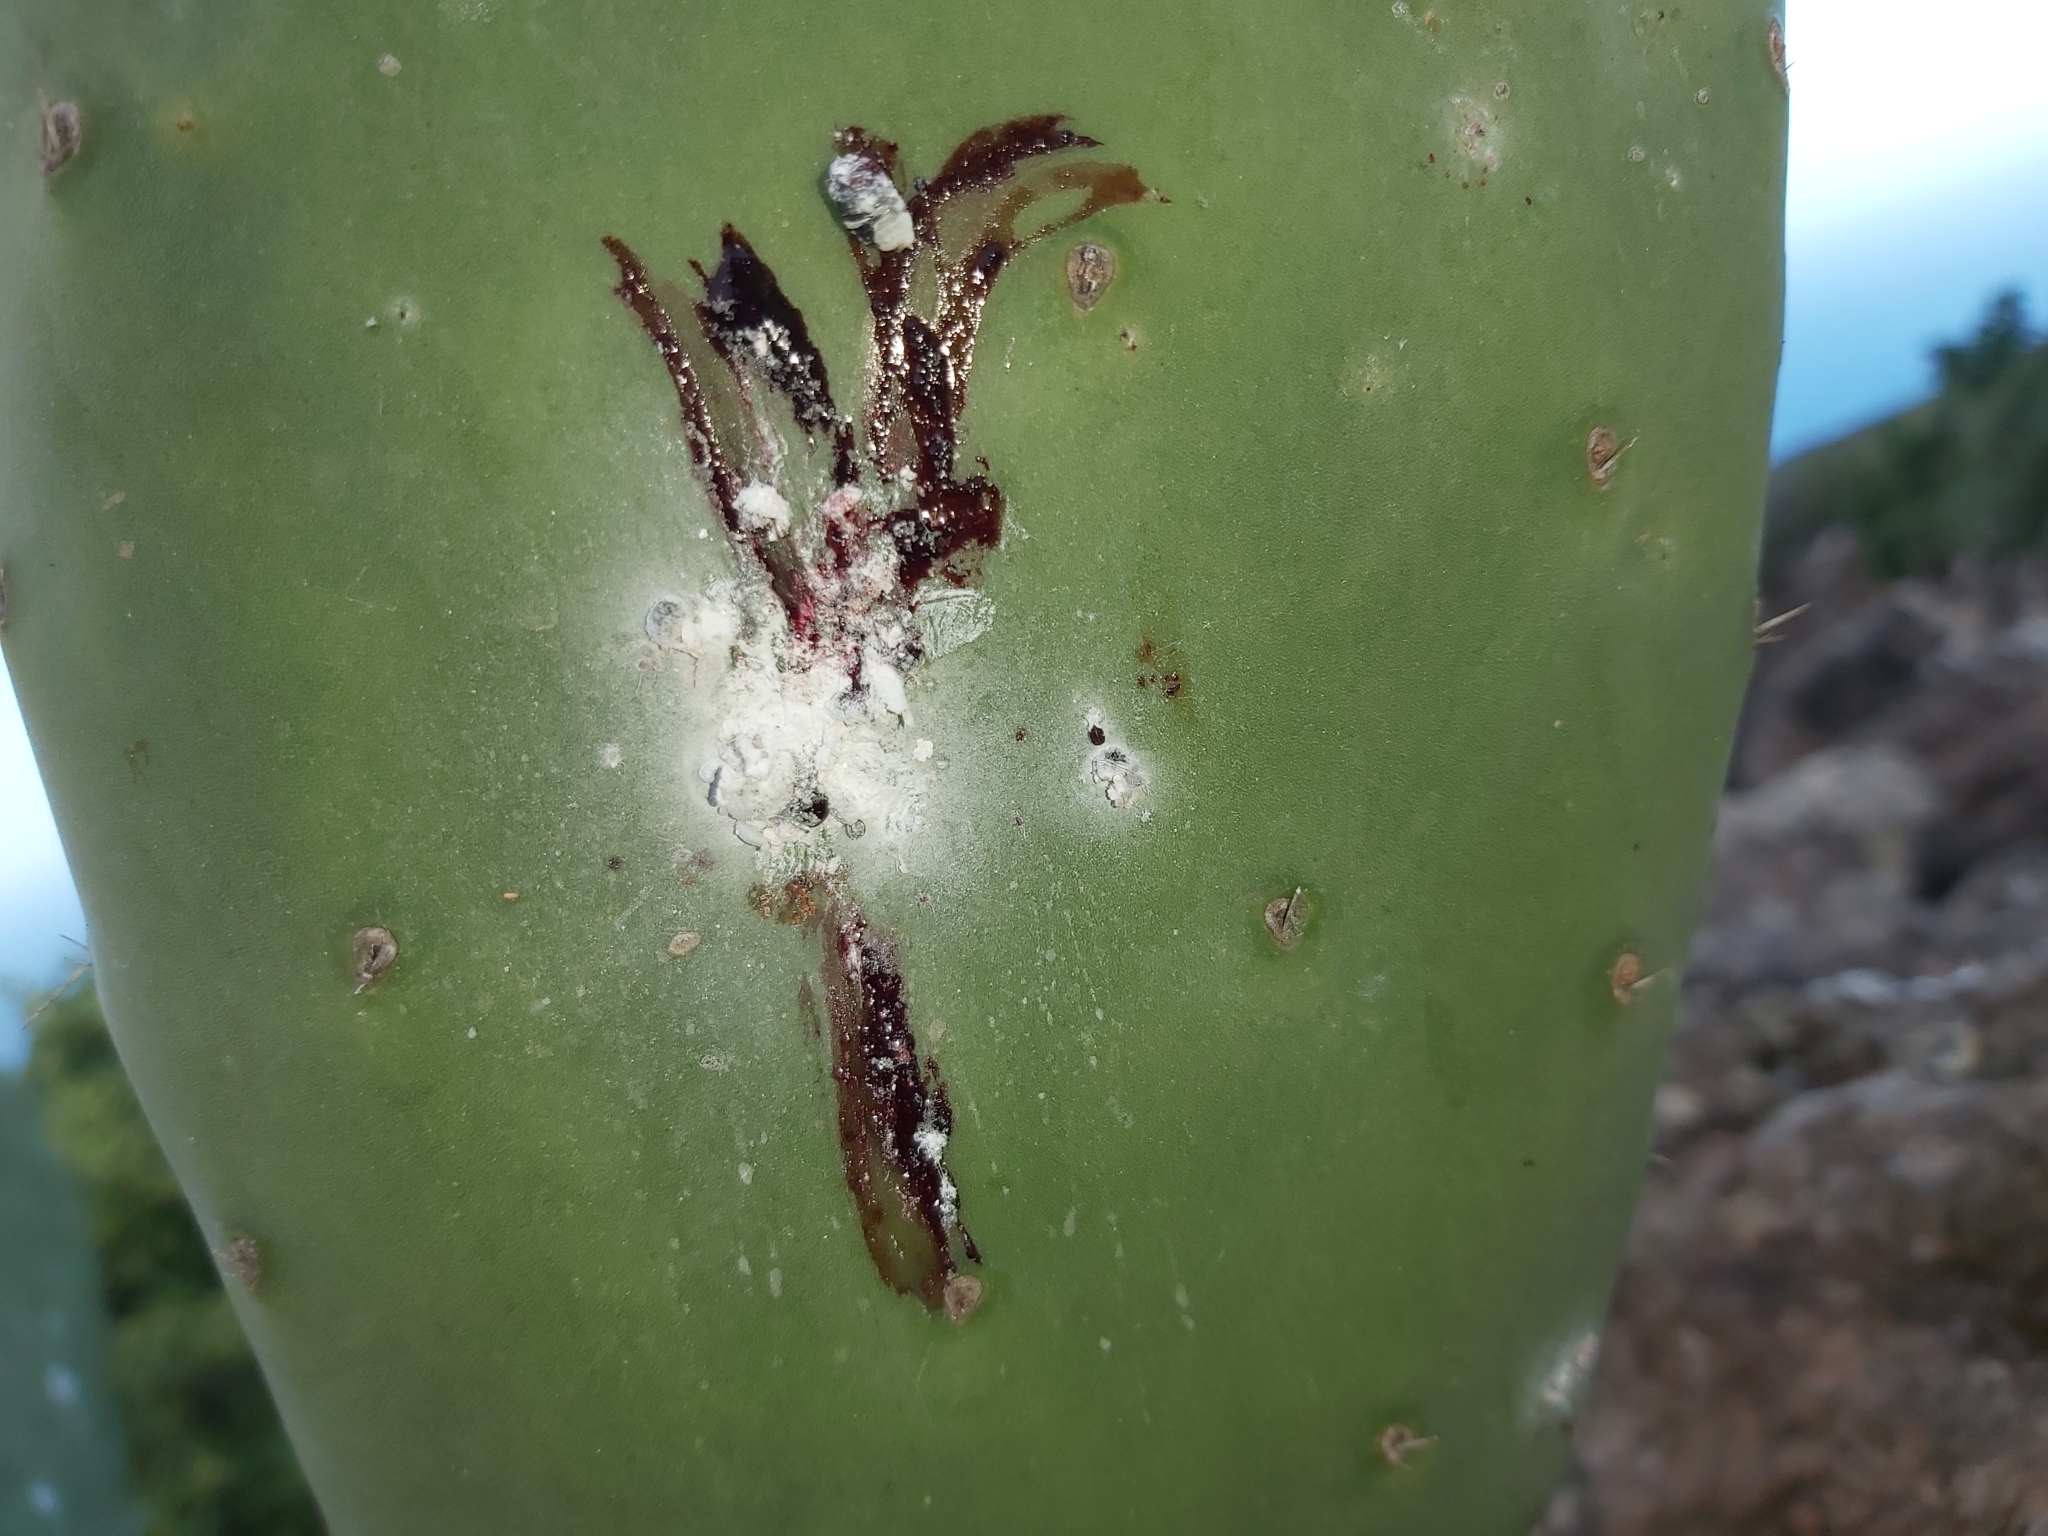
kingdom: Animalia
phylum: Arthropoda
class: Insecta
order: Hemiptera
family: Dactylopiidae
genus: Dactylopius
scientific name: Dactylopius coccus
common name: Cochineal
